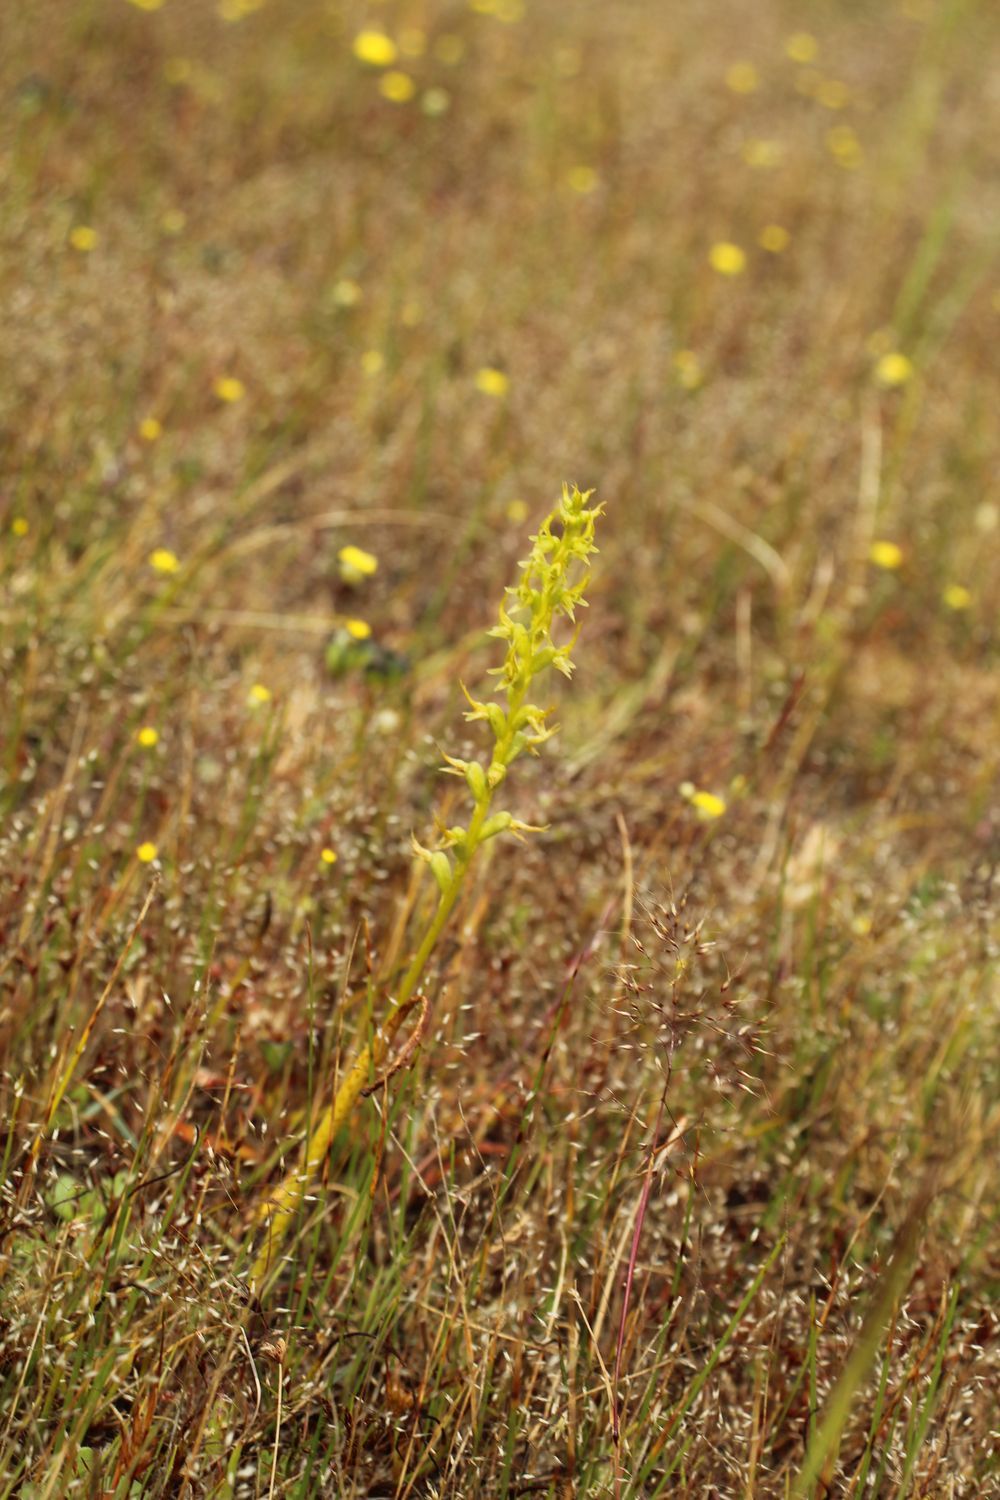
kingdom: Plantae
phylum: Tracheophyta
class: Liliopsida
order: Asparagales
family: Orchidaceae
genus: Prasophyllum
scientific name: Prasophyllum gracile
